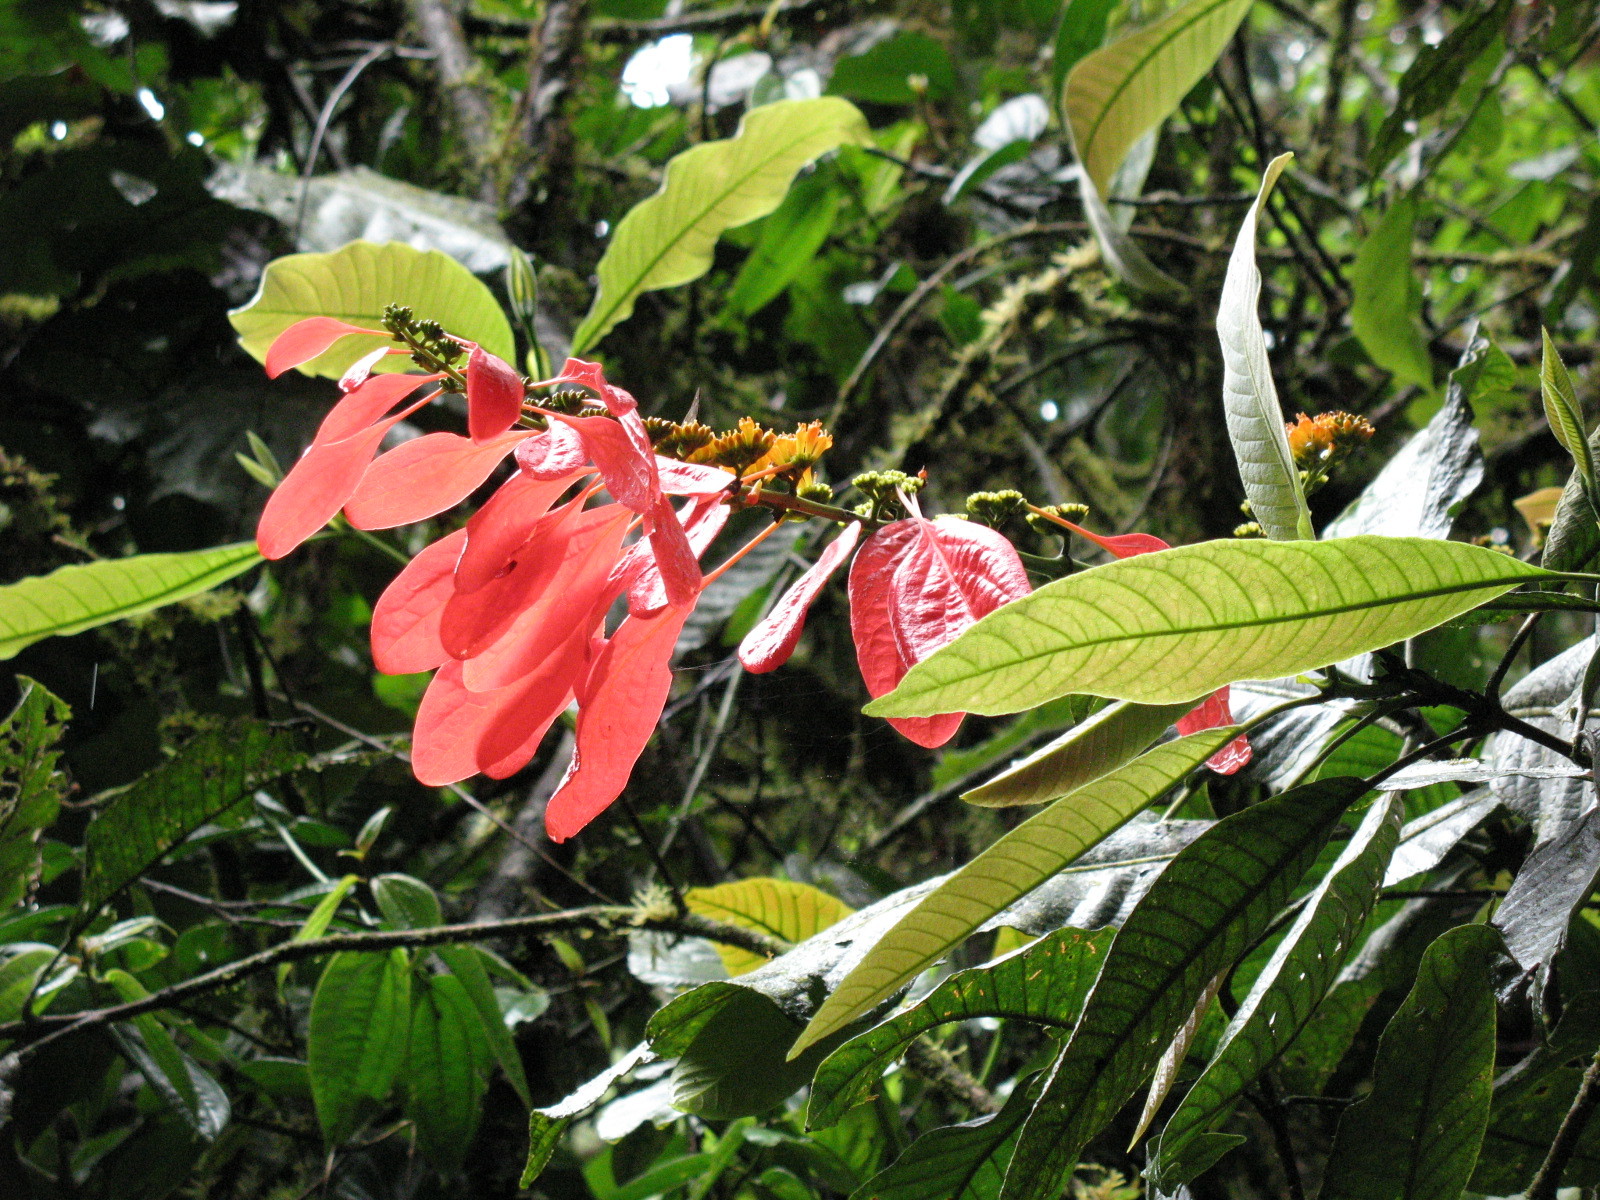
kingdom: Plantae
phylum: Tracheophyta
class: Magnoliopsida
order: Gentianales
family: Rubiaceae
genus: Warszewiczia
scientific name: Warszewiczia coccinea
